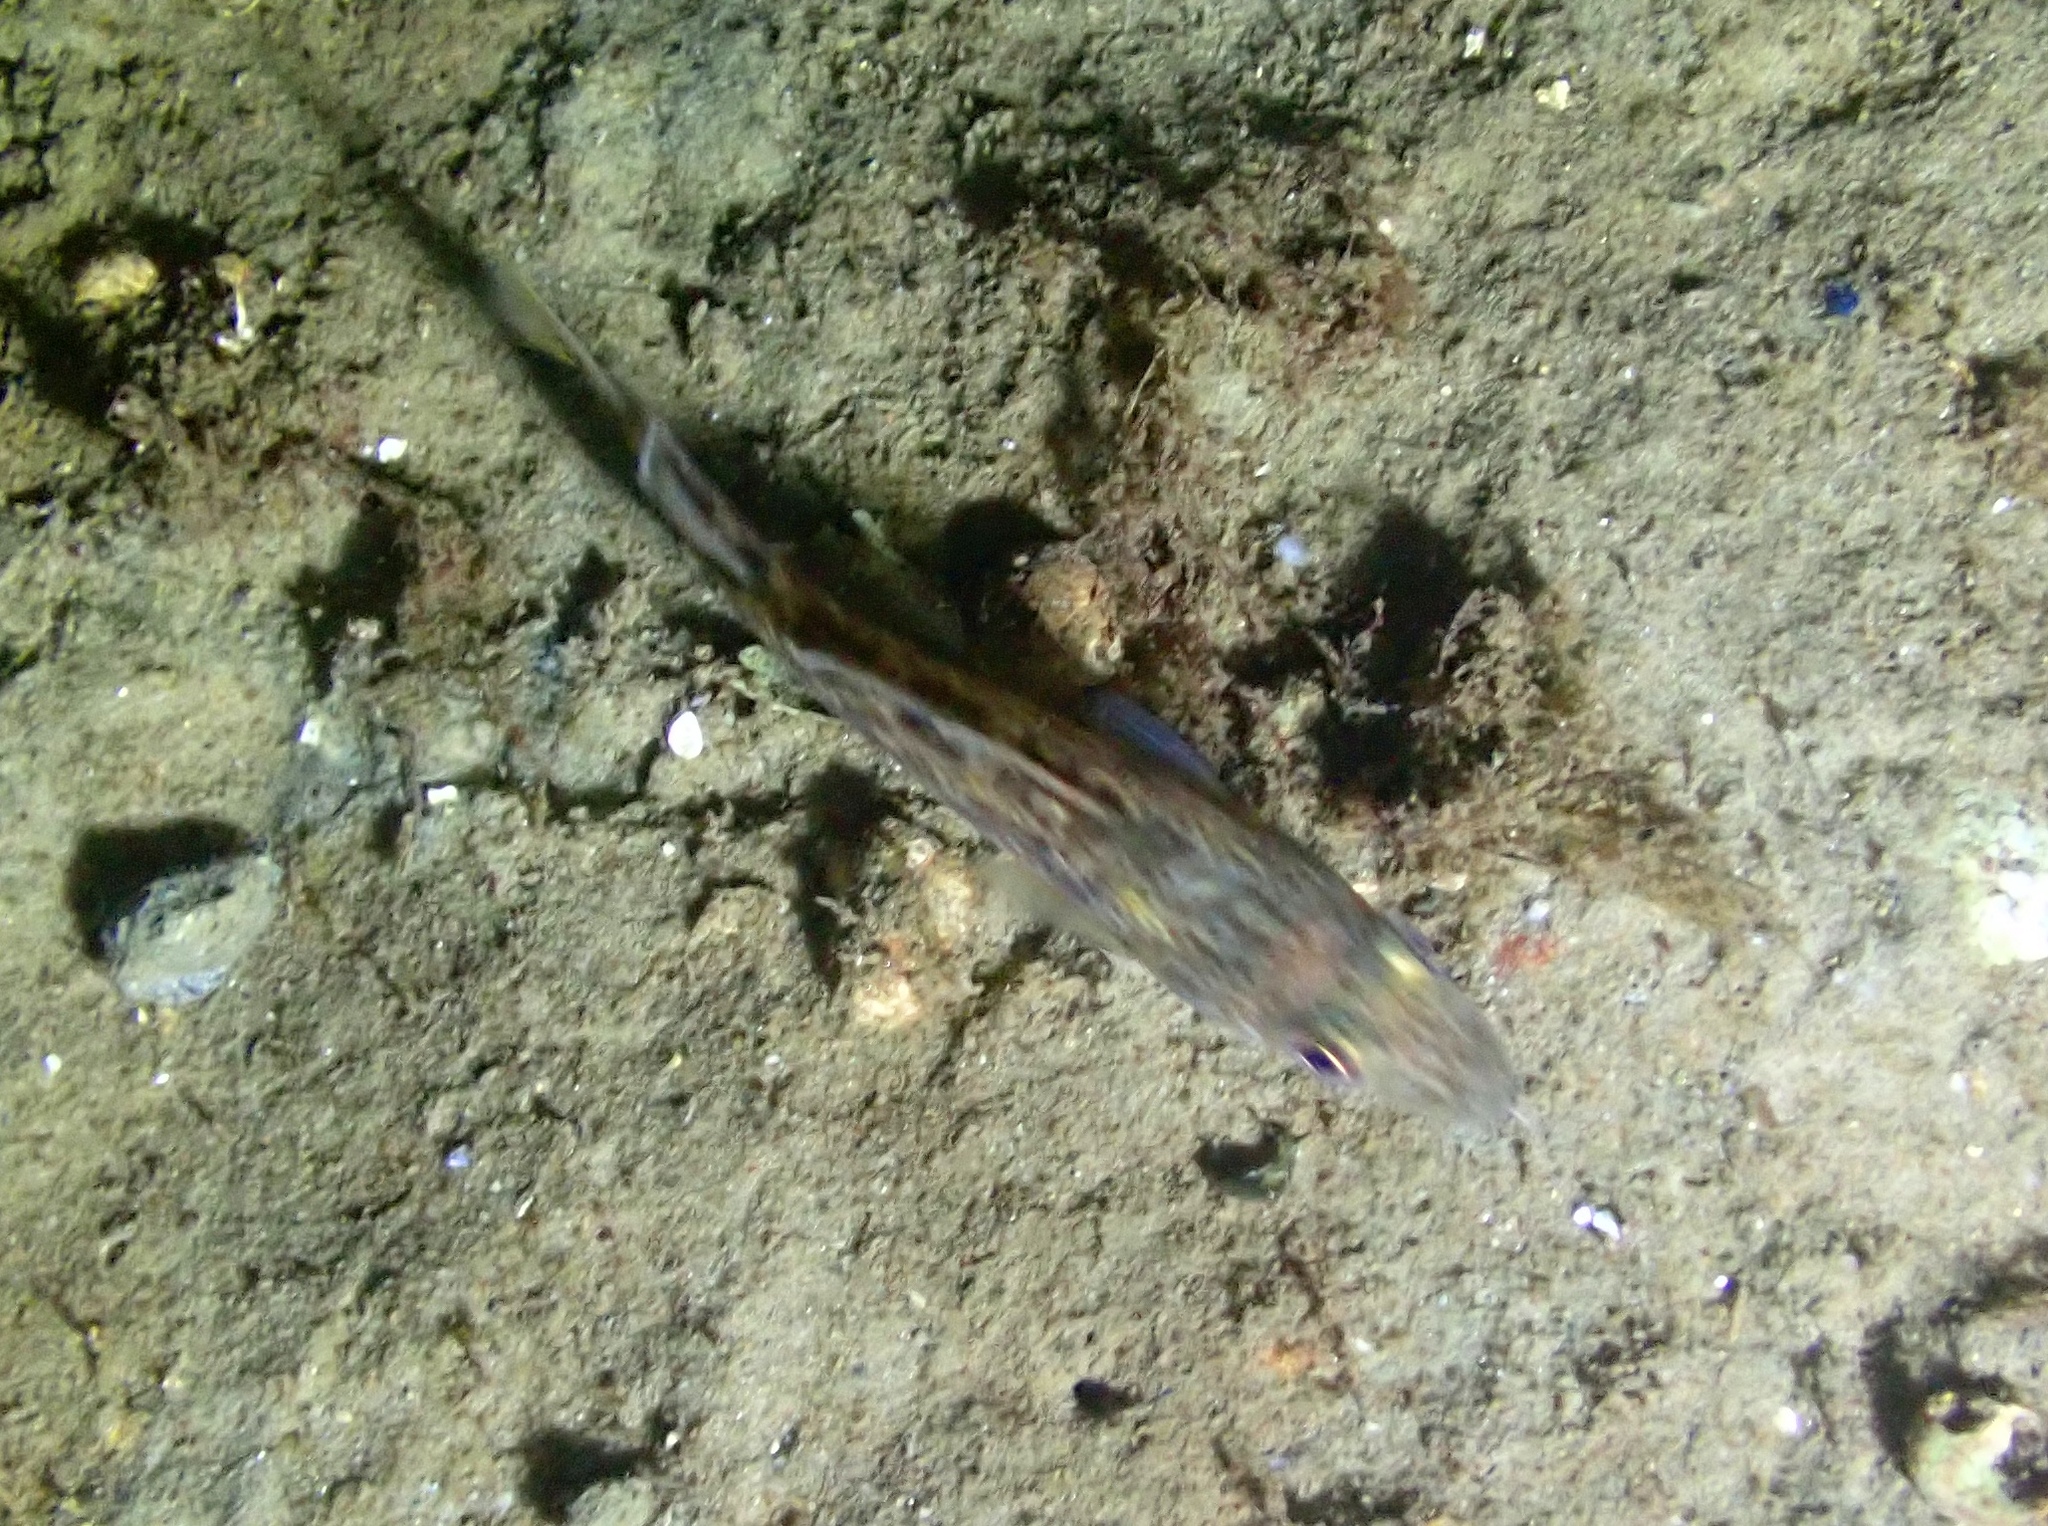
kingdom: Animalia
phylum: Chordata
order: Gadiformes
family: Gadidae
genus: Gadus
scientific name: Gadus morhua
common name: Atlantic cod
